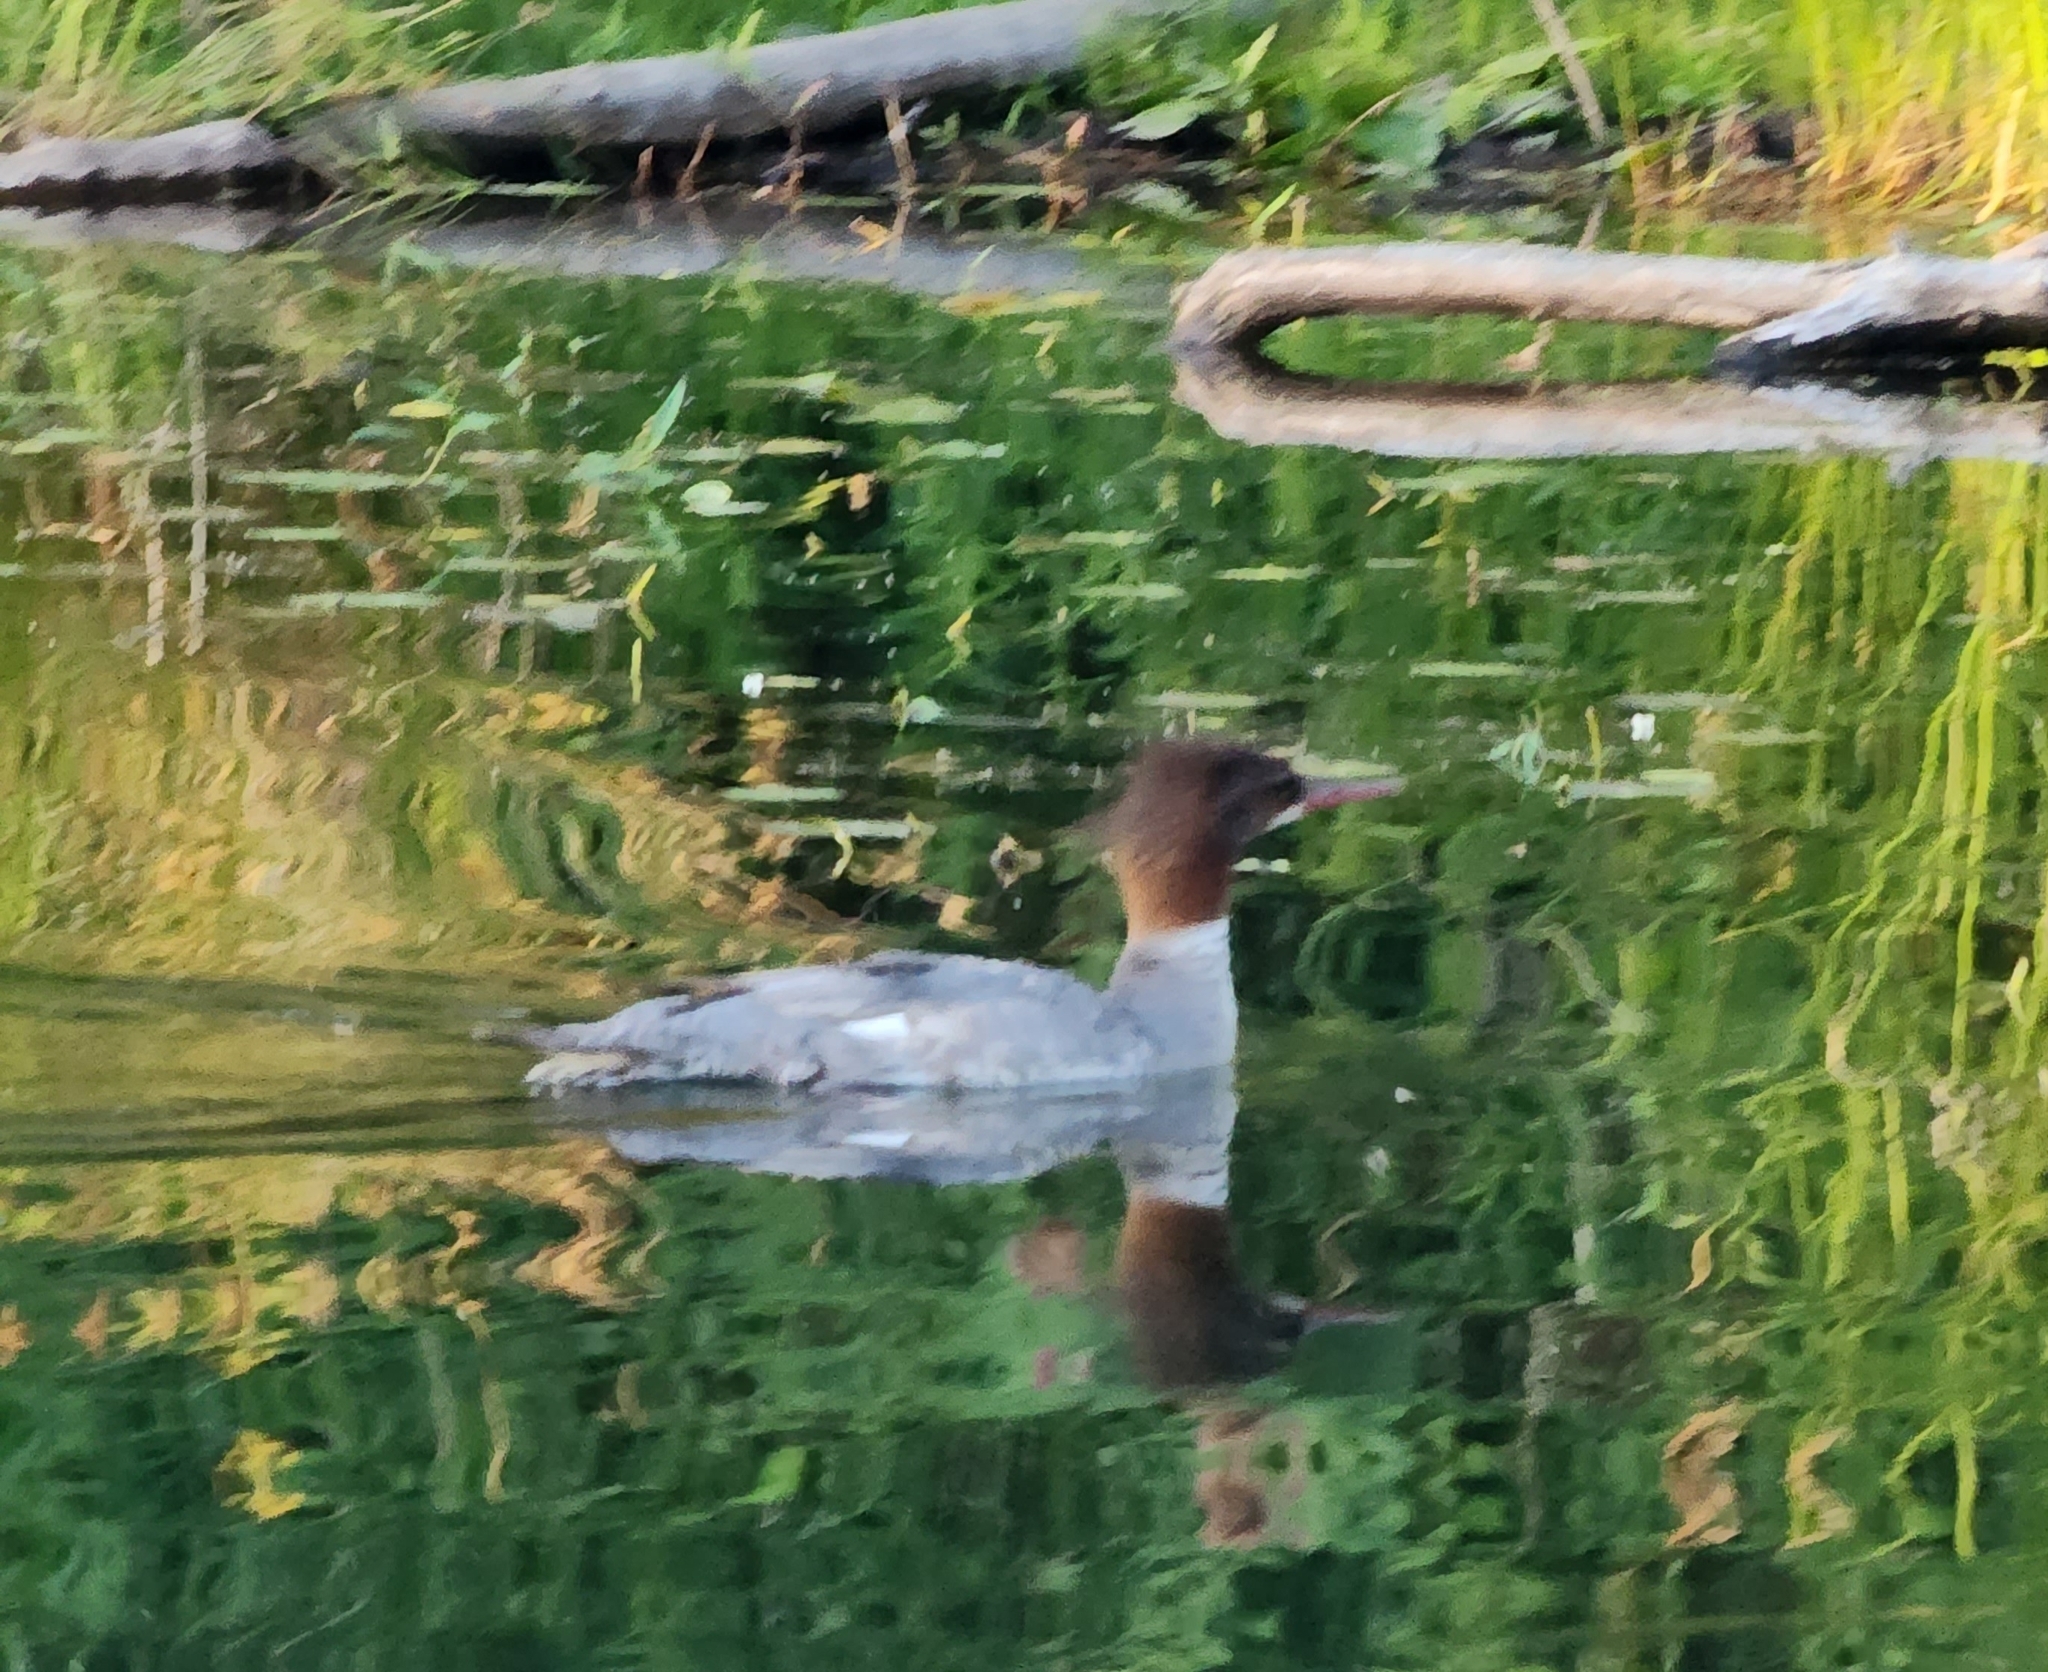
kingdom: Animalia
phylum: Chordata
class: Aves
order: Anseriformes
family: Anatidae
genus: Mergus
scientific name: Mergus merganser
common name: Common merganser
